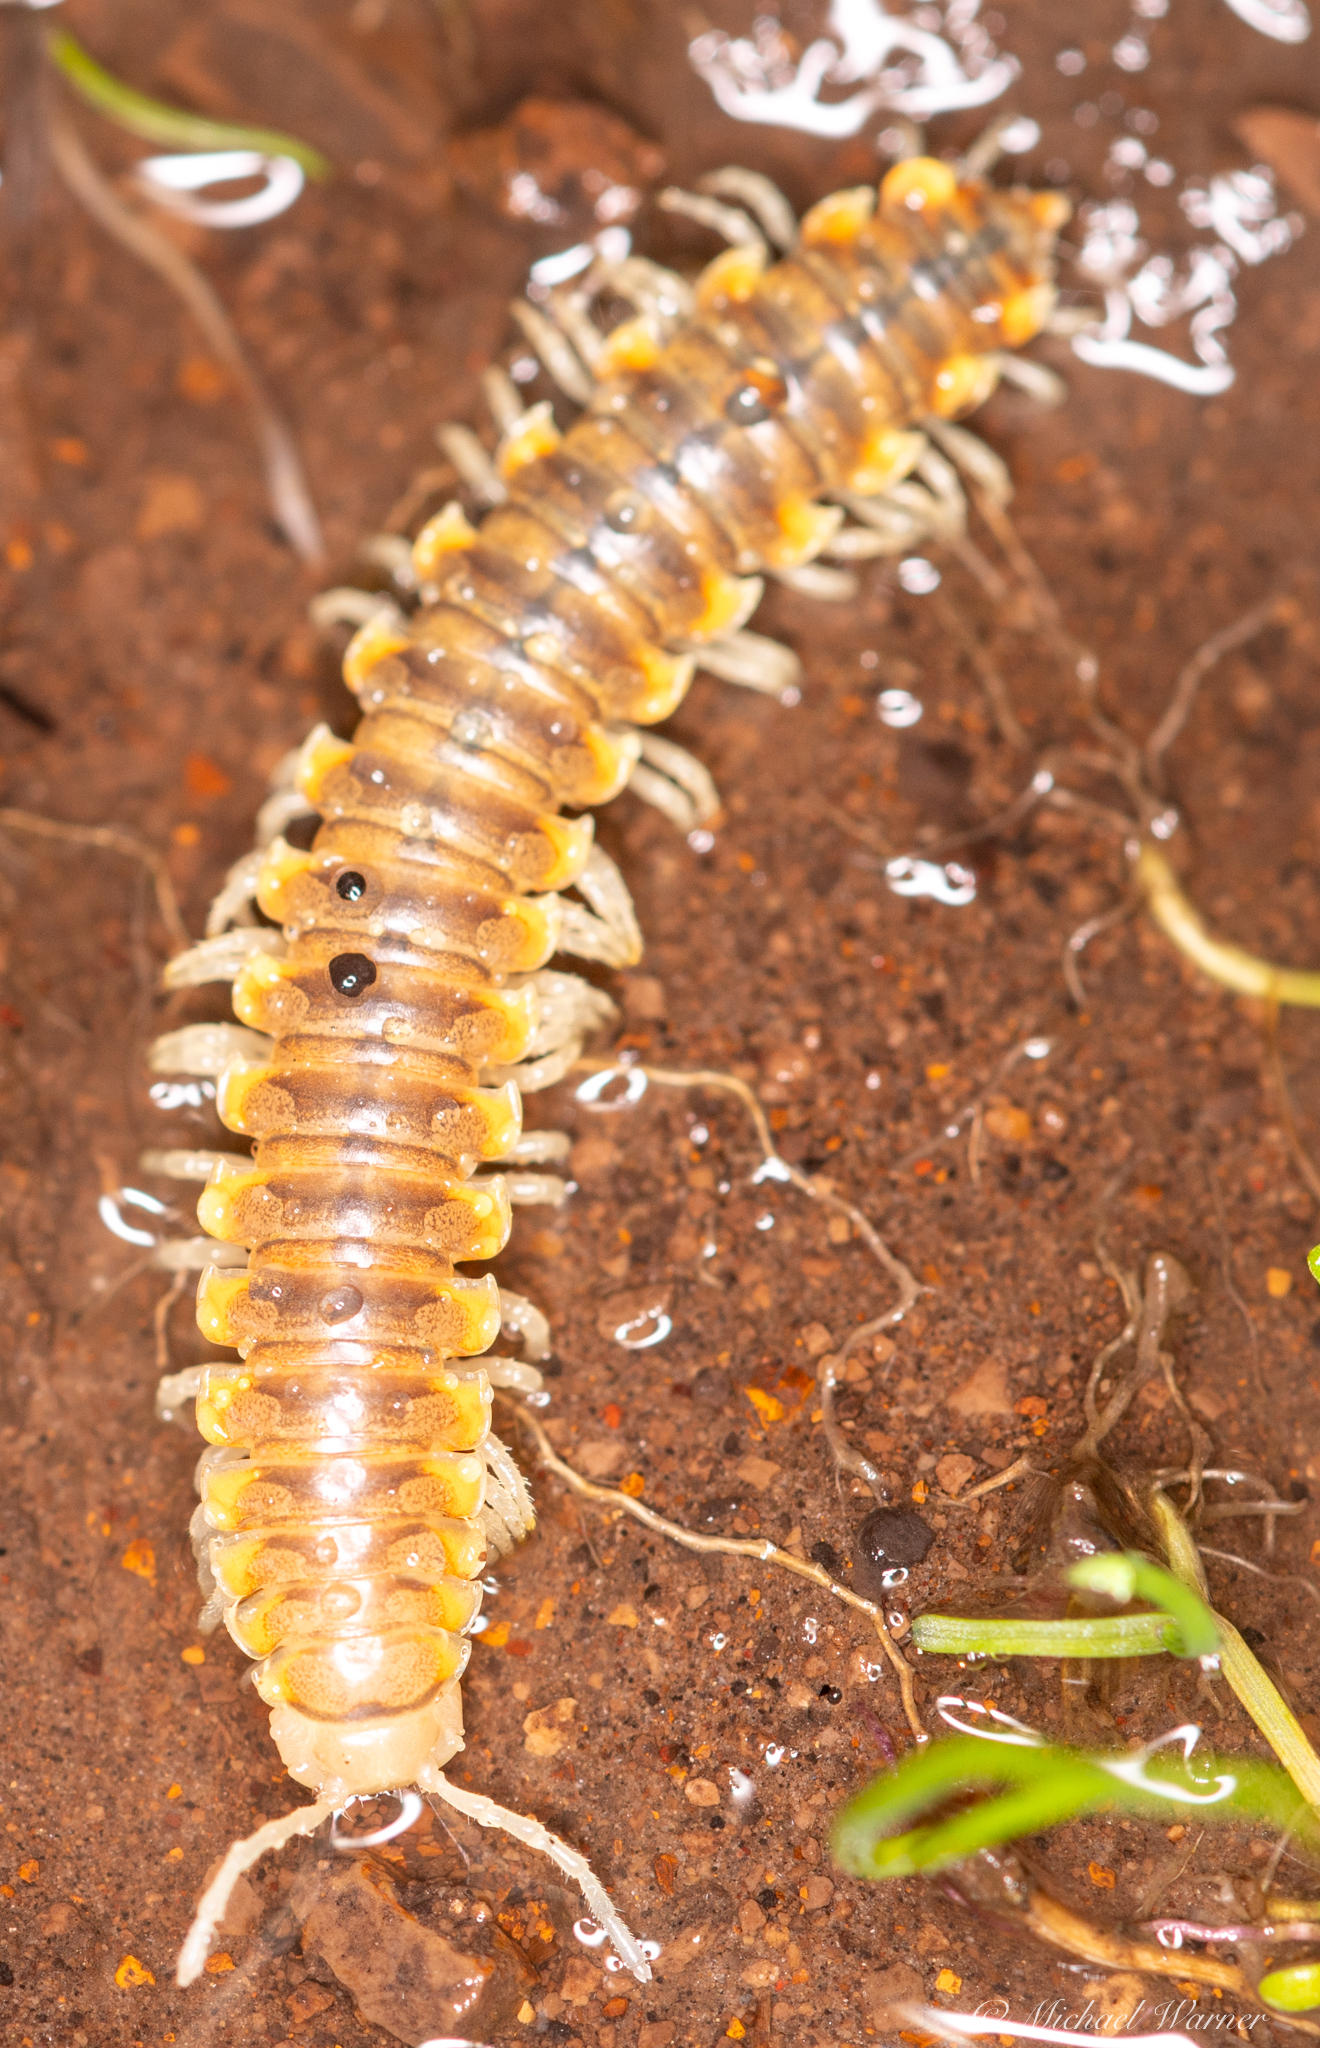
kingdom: Animalia
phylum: Arthropoda
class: Diplopoda
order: Polydesmida
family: Xystodesmidae
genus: Xystocheir
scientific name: Xystocheir dissecta
